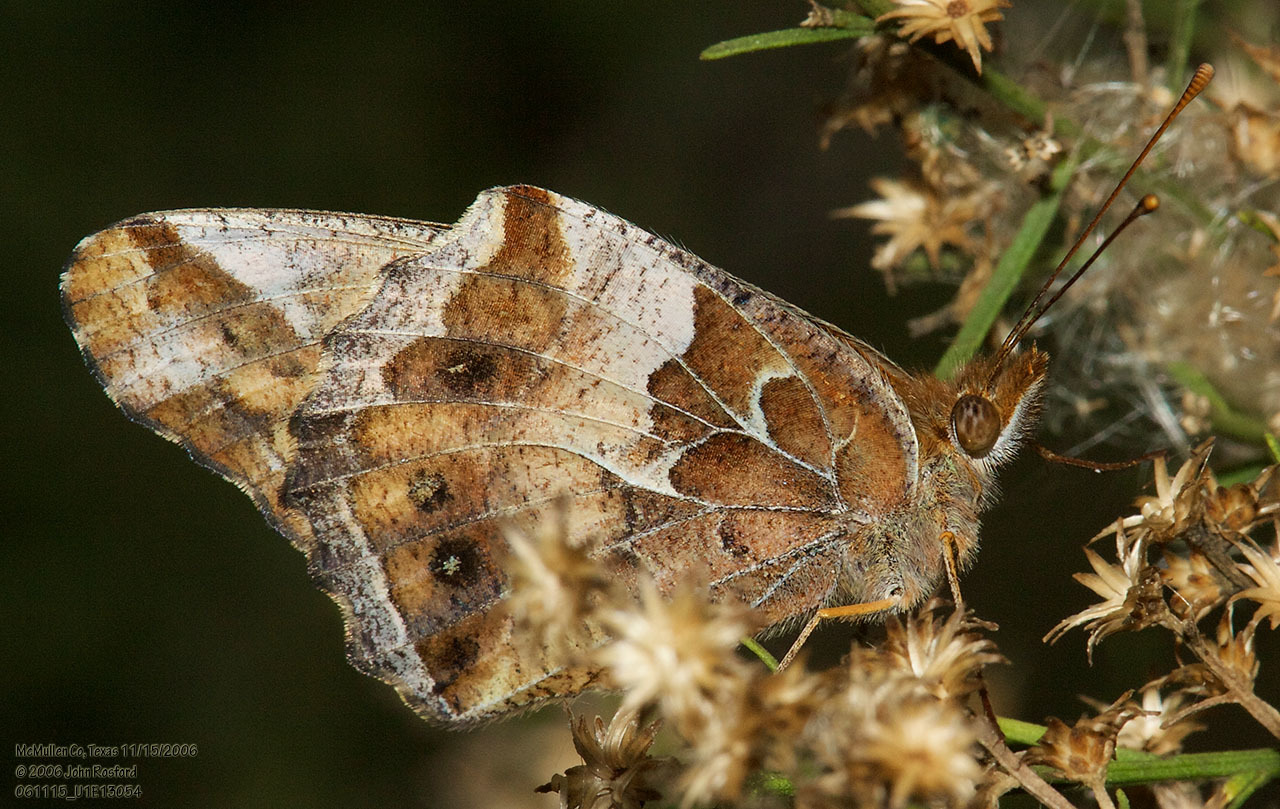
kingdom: Animalia
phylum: Arthropoda
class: Insecta
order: Lepidoptera
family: Nymphalidae
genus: Euptoieta
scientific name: Euptoieta claudia
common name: Variegated fritillary
